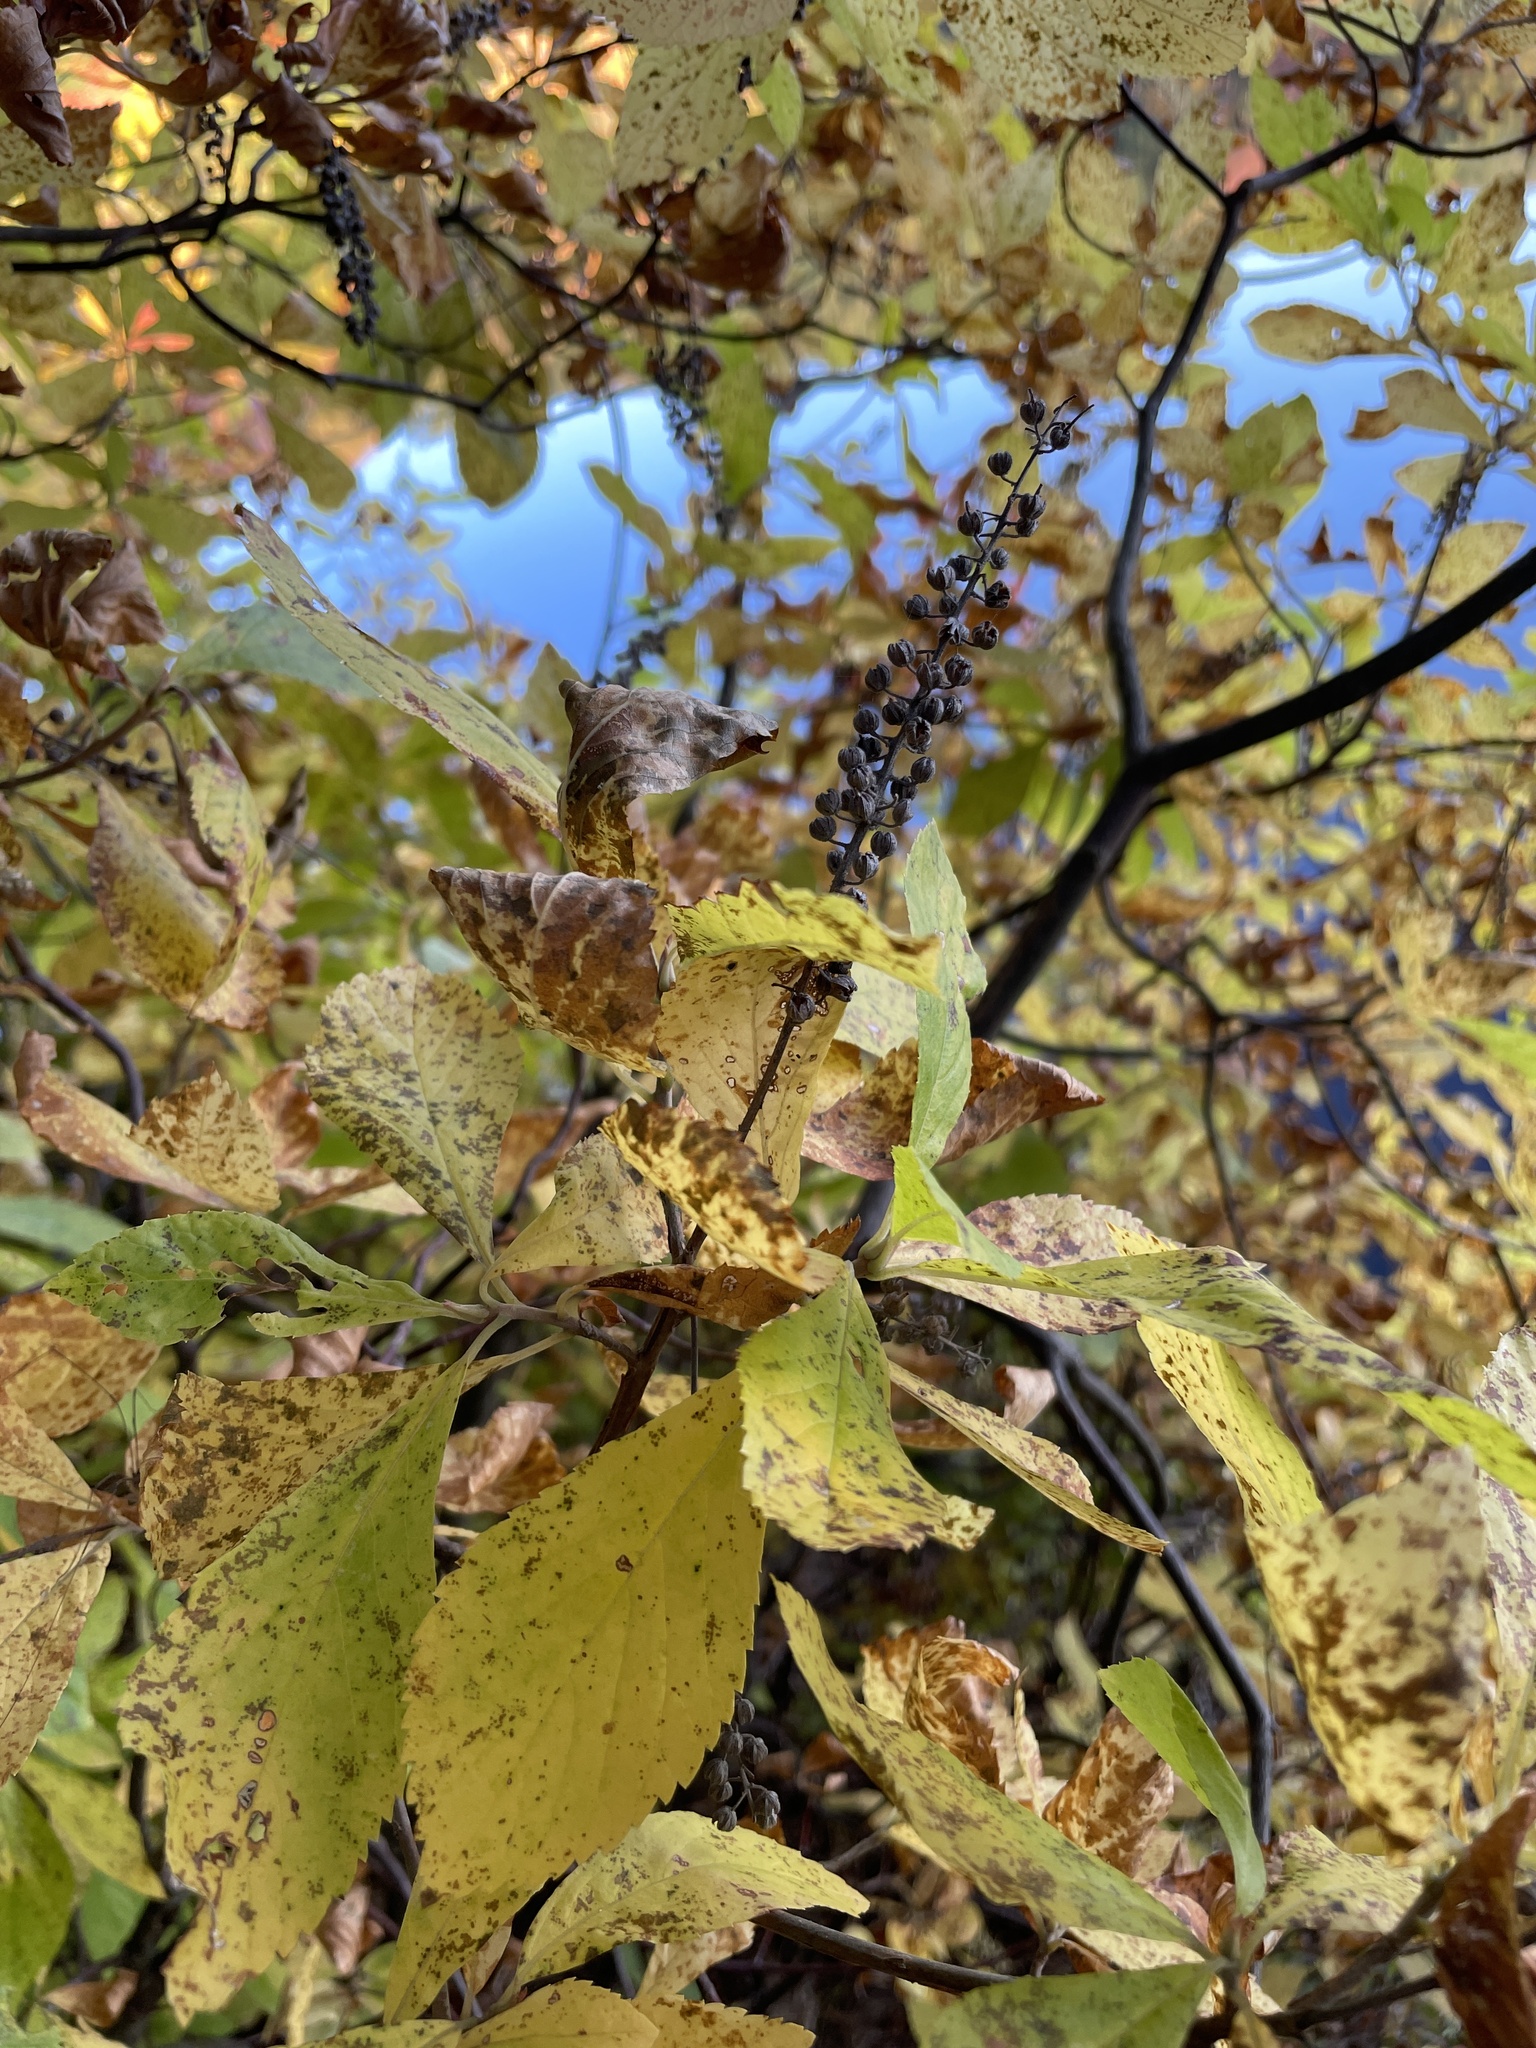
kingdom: Plantae
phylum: Tracheophyta
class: Magnoliopsida
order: Ericales
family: Clethraceae
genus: Clethra
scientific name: Clethra alnifolia
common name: Sweet pepperbush
